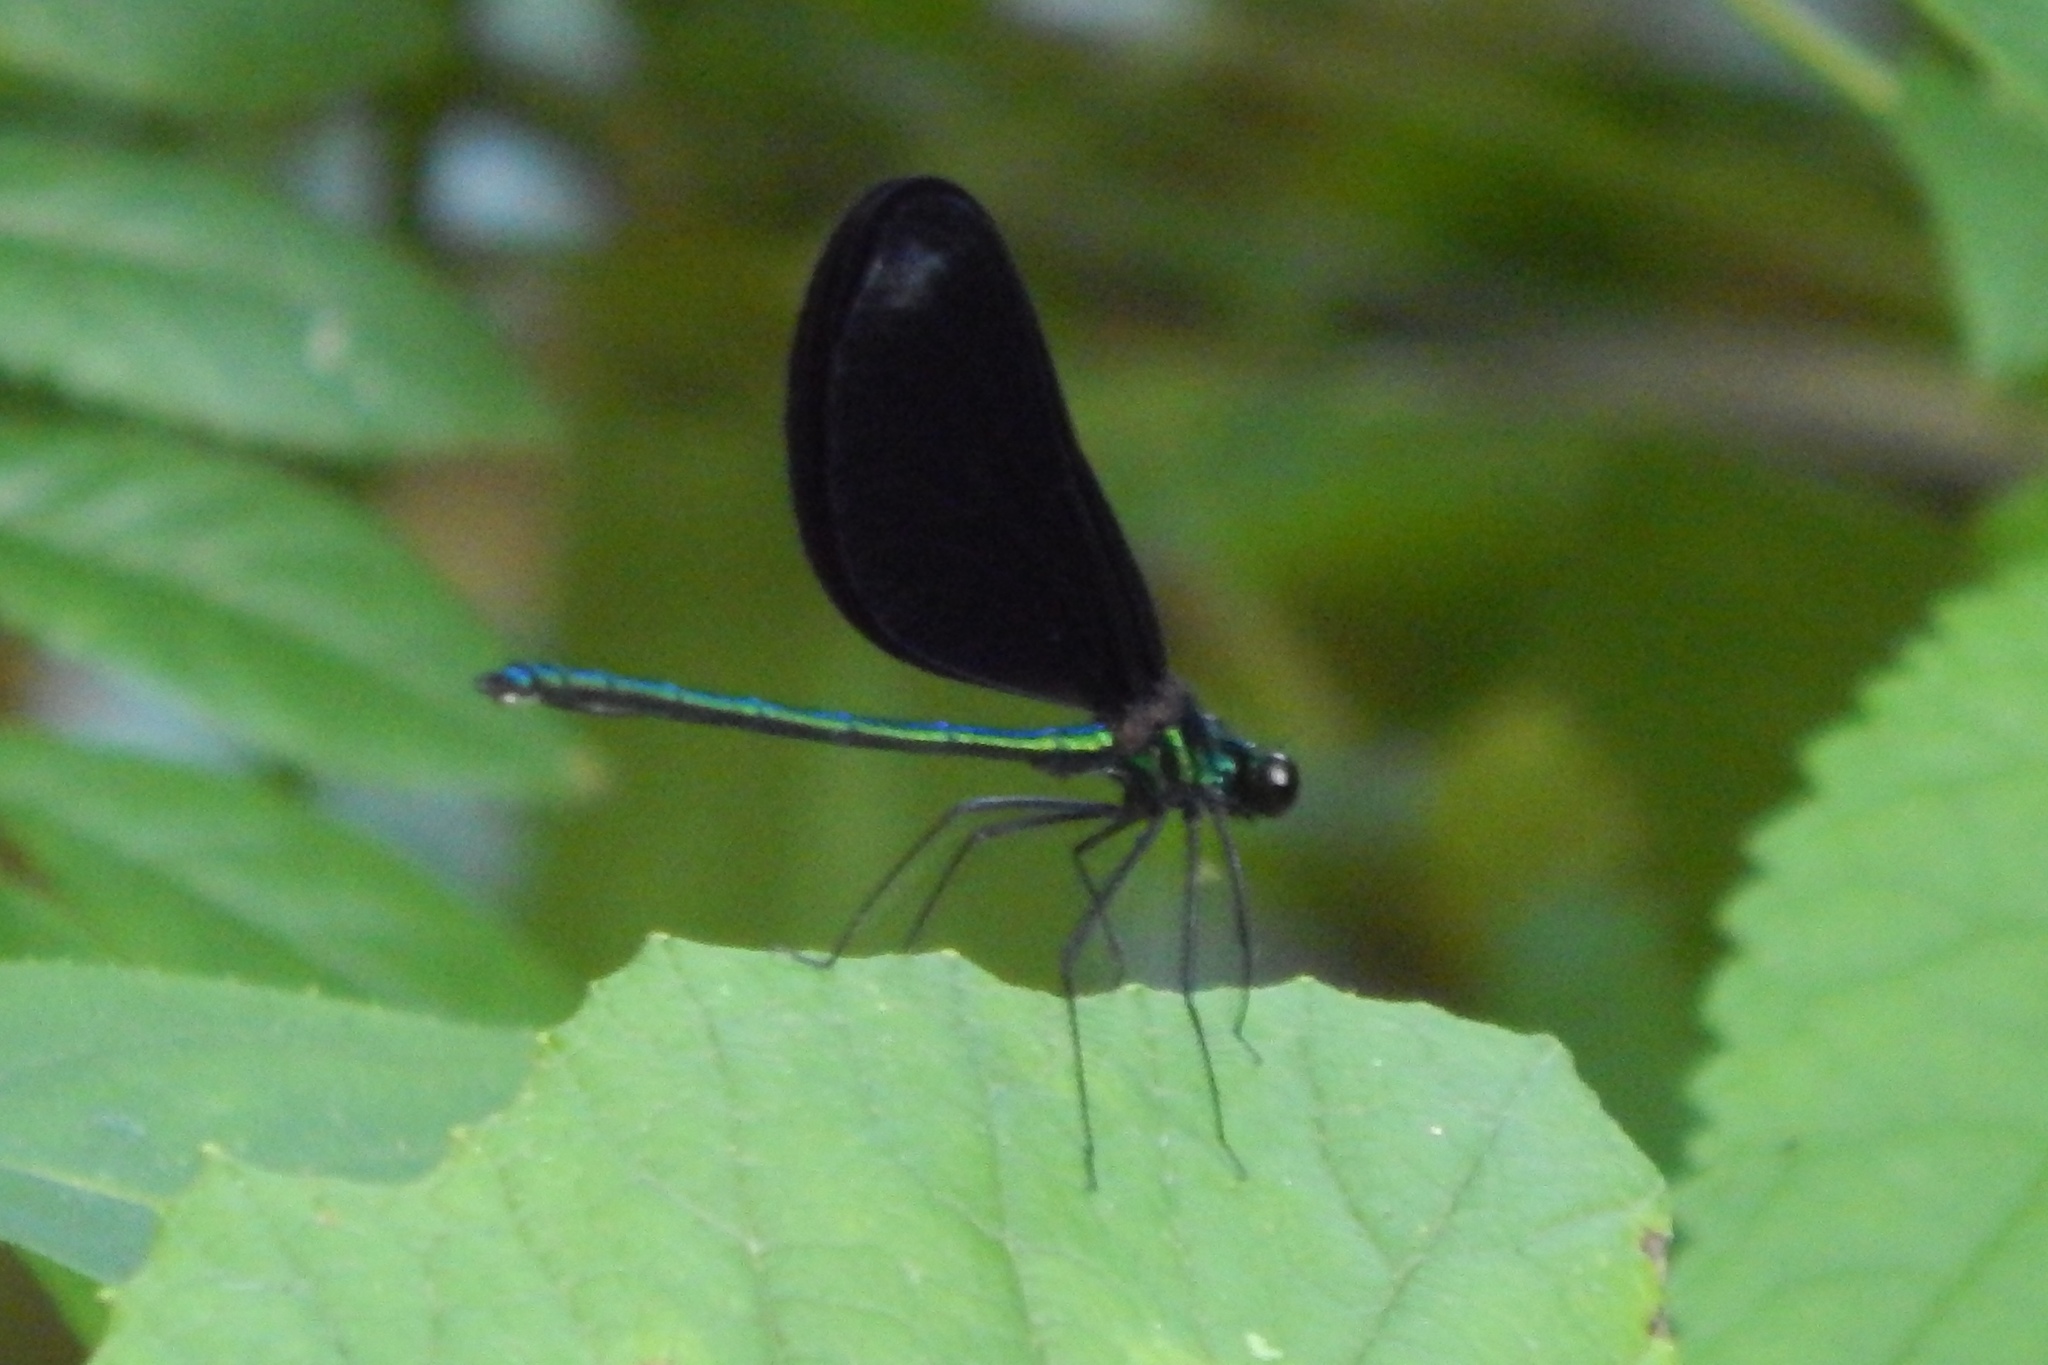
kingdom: Animalia
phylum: Arthropoda
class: Insecta
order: Odonata
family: Calopterygidae
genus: Calopteryx
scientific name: Calopteryx maculata
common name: Ebony jewelwing
